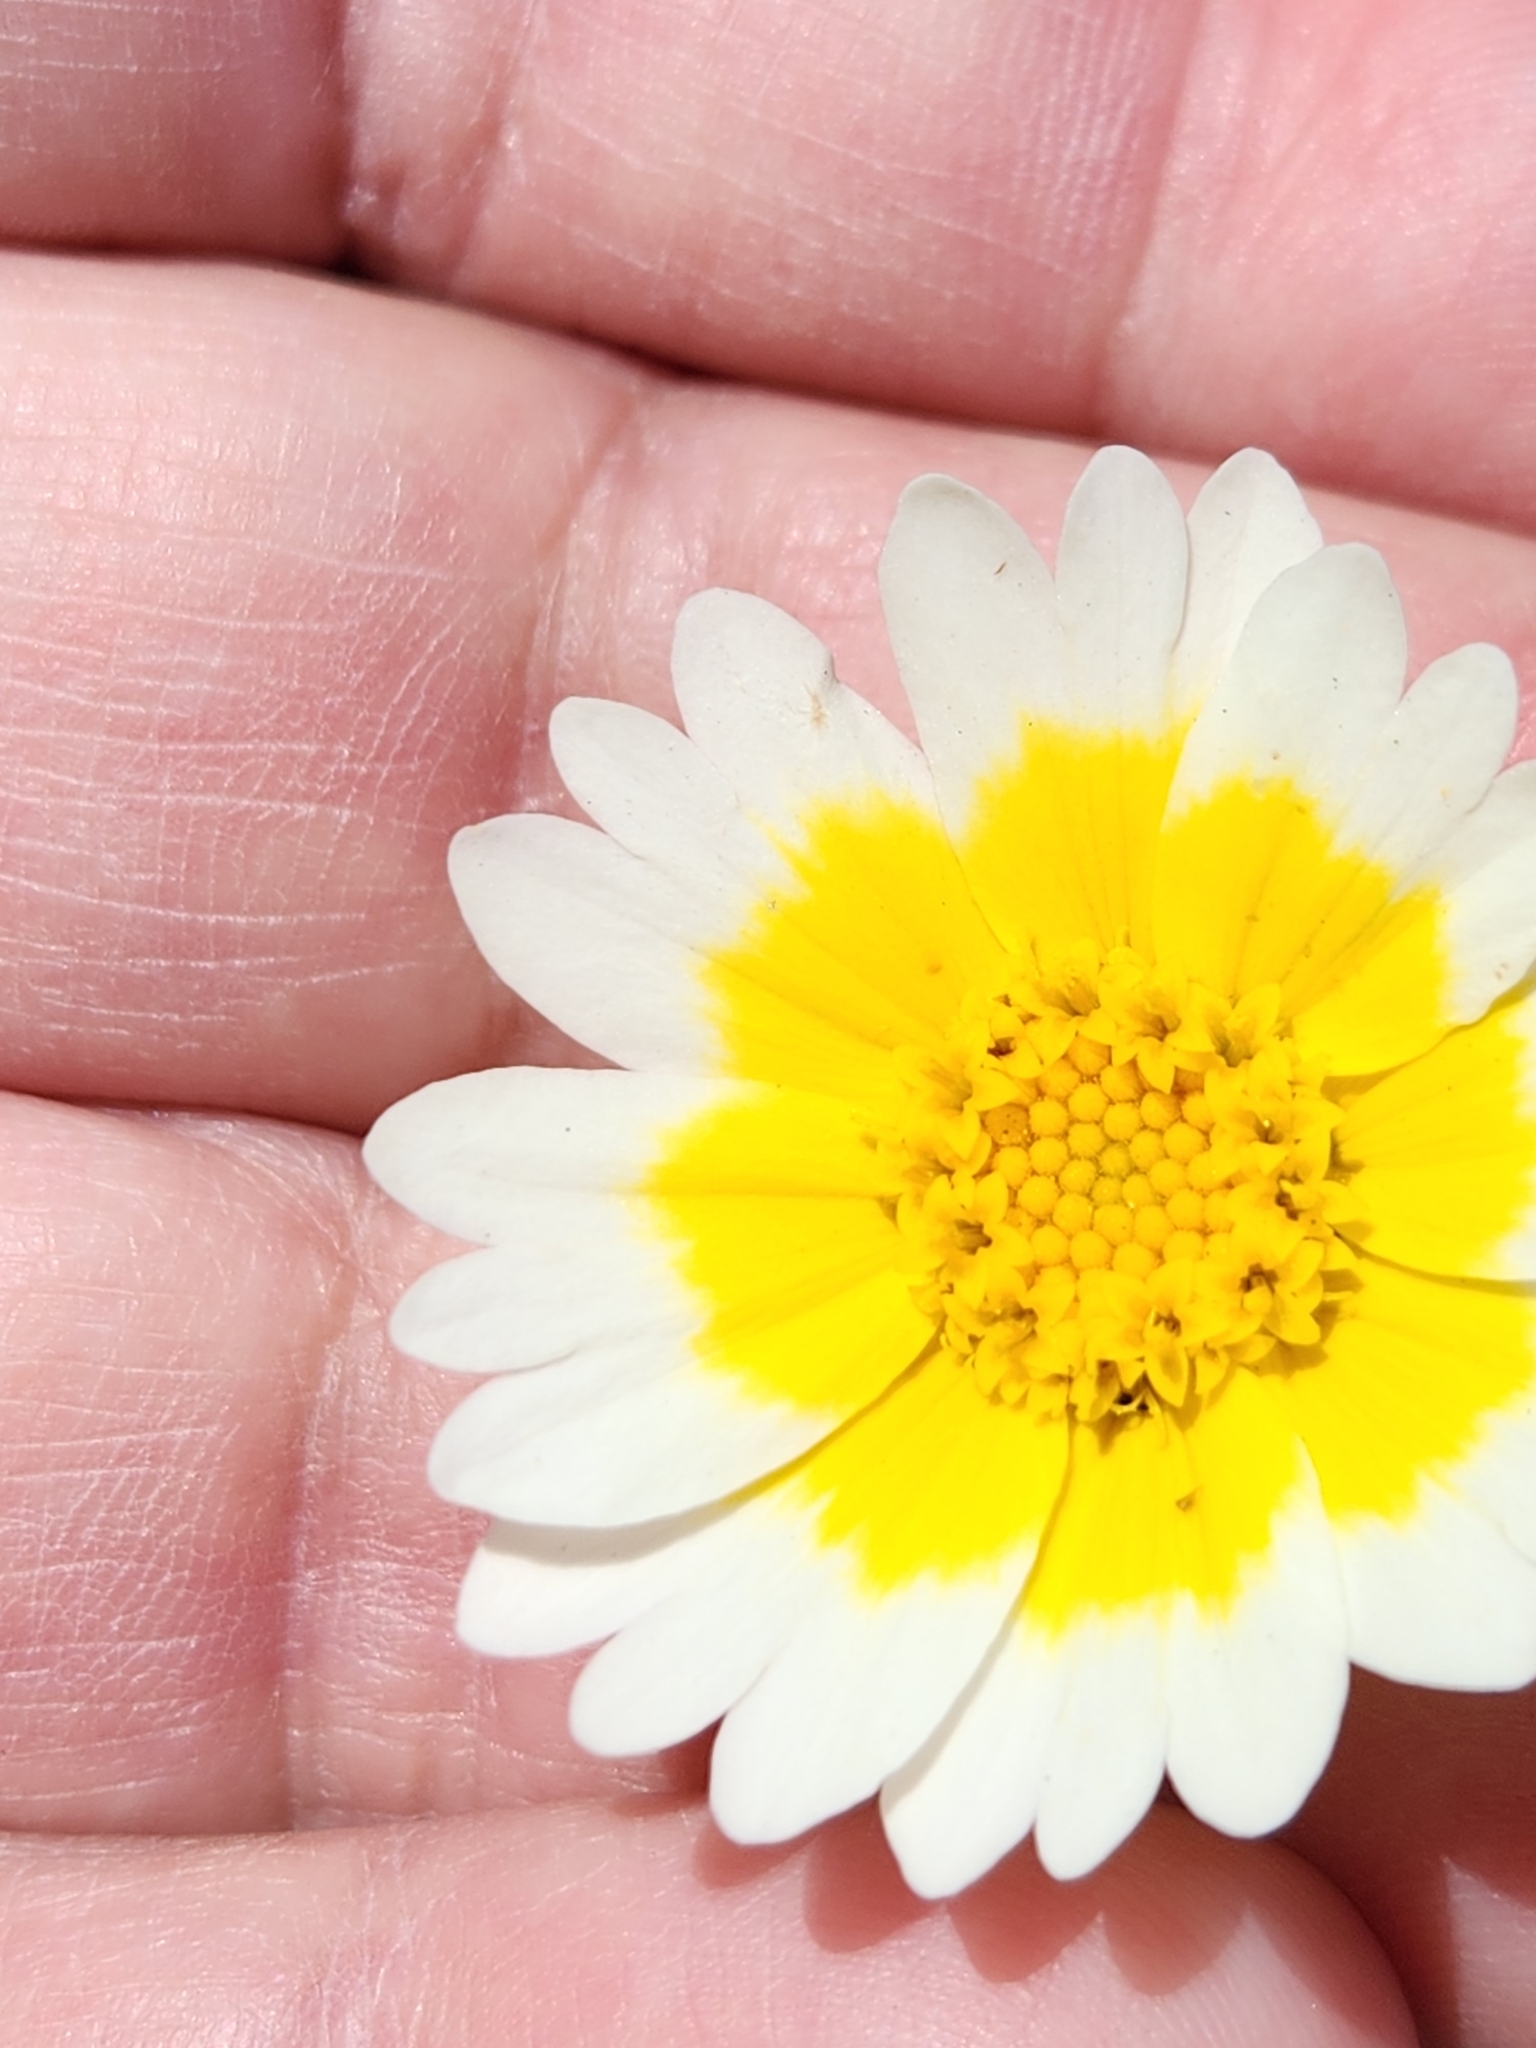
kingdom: Plantae
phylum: Tracheophyta
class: Magnoliopsida
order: Asterales
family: Asteraceae
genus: Layia
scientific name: Layia platyglossa
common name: Tidy-tips
